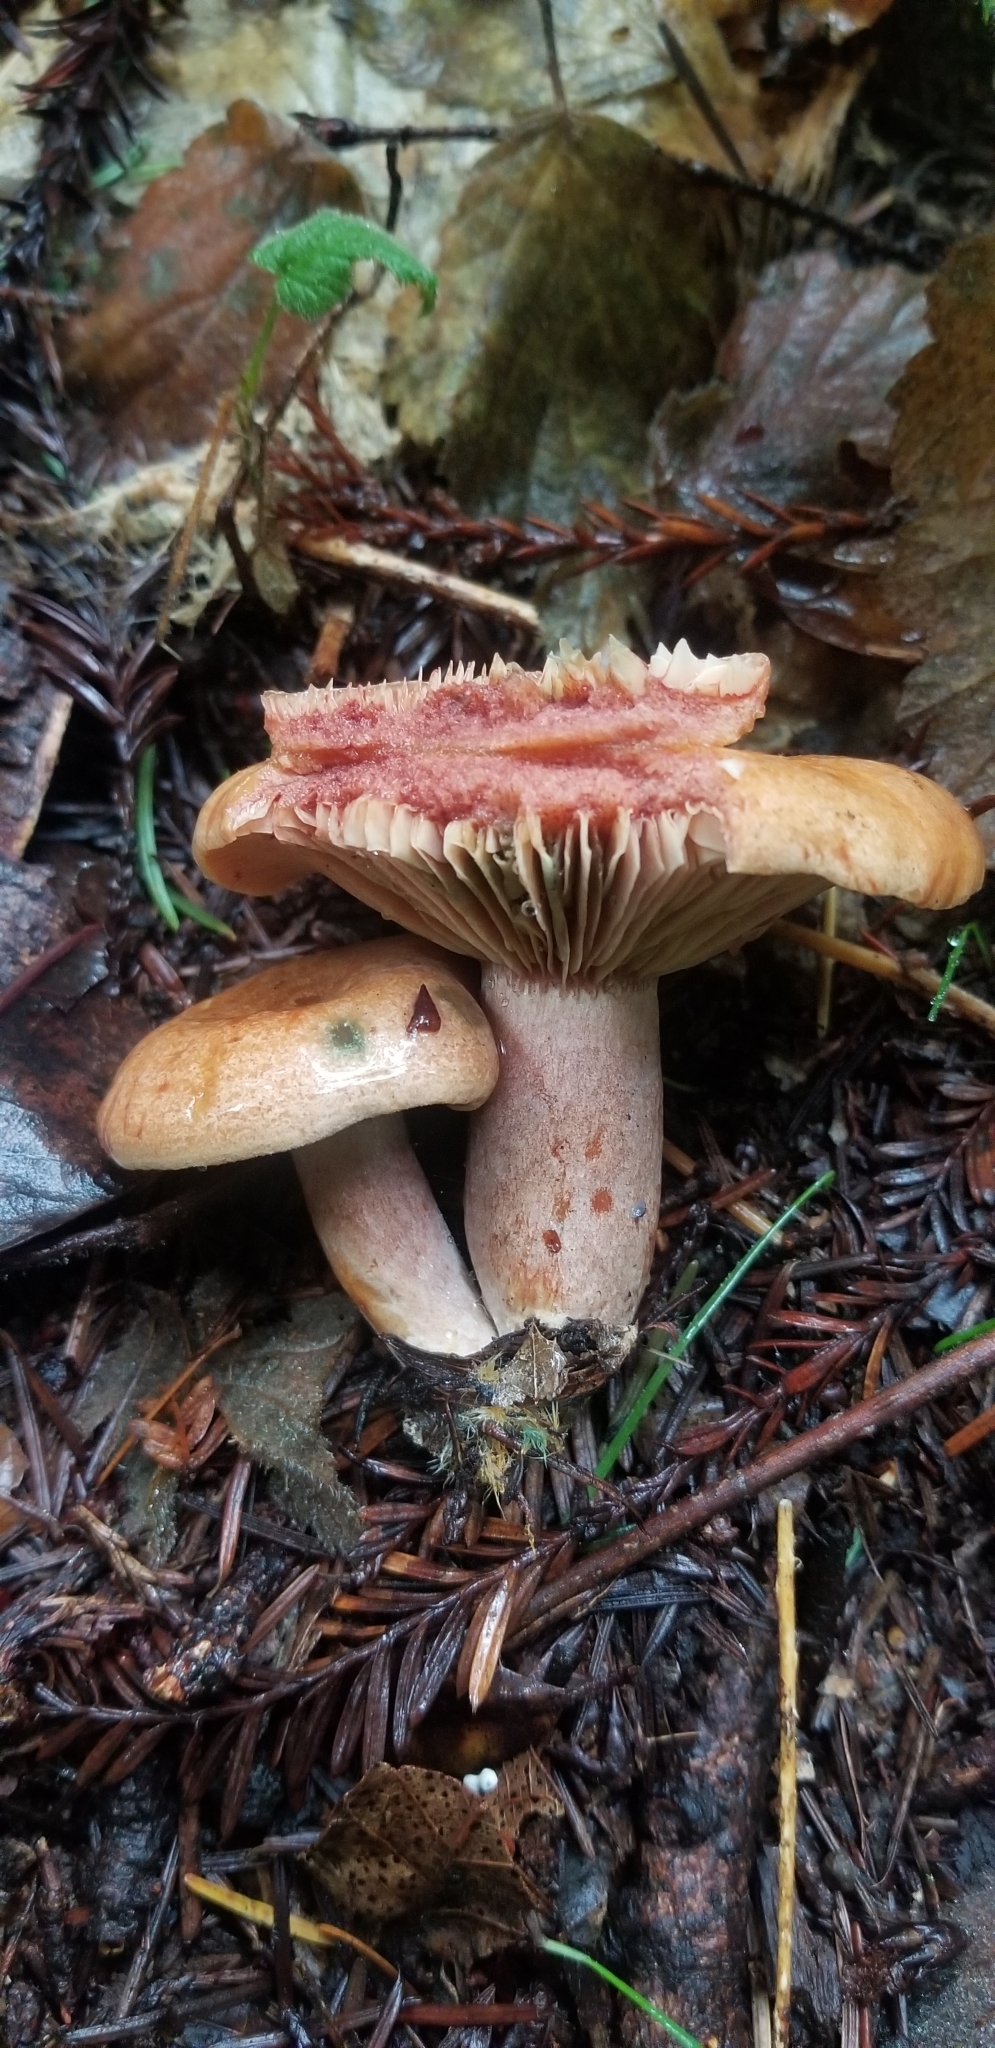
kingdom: Fungi
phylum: Basidiomycota
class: Agaricomycetes
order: Russulales
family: Russulaceae
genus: Lactarius
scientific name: Lactarius rubrilacteus
